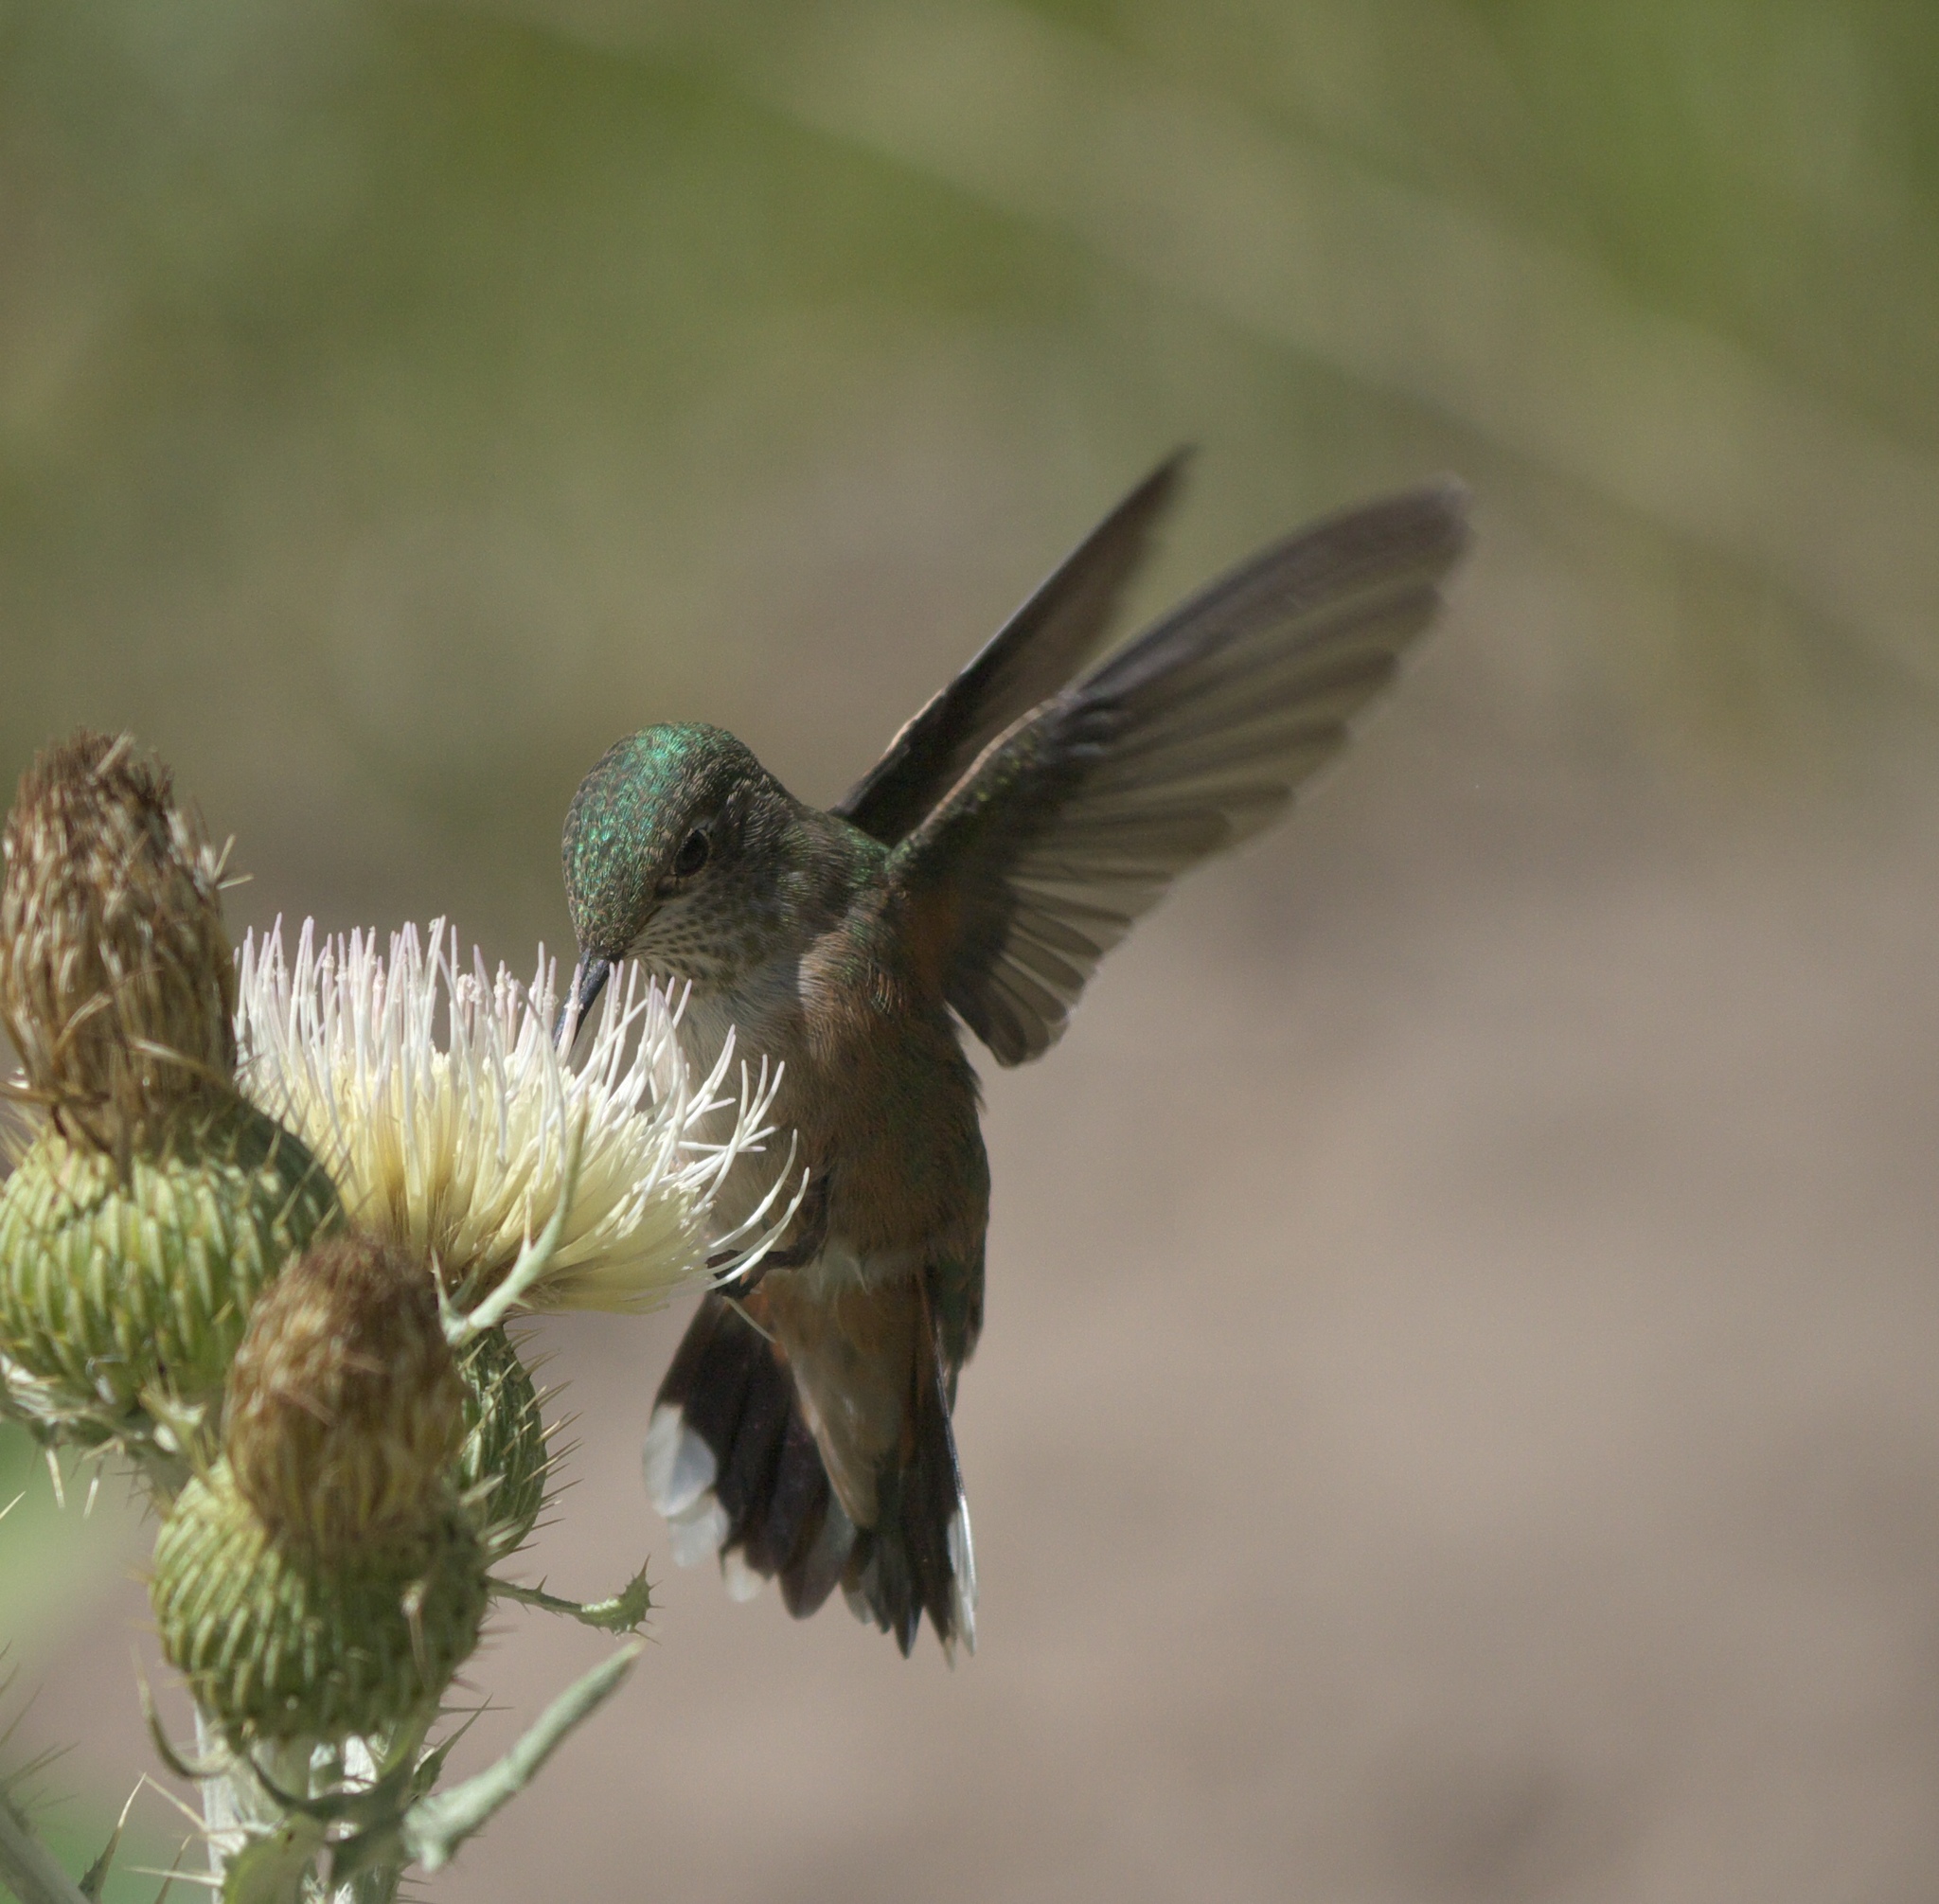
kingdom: Animalia
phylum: Chordata
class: Aves
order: Apodiformes
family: Trochilidae
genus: Selasphorus
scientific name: Selasphorus platycercus
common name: Broad-tailed hummingbird
